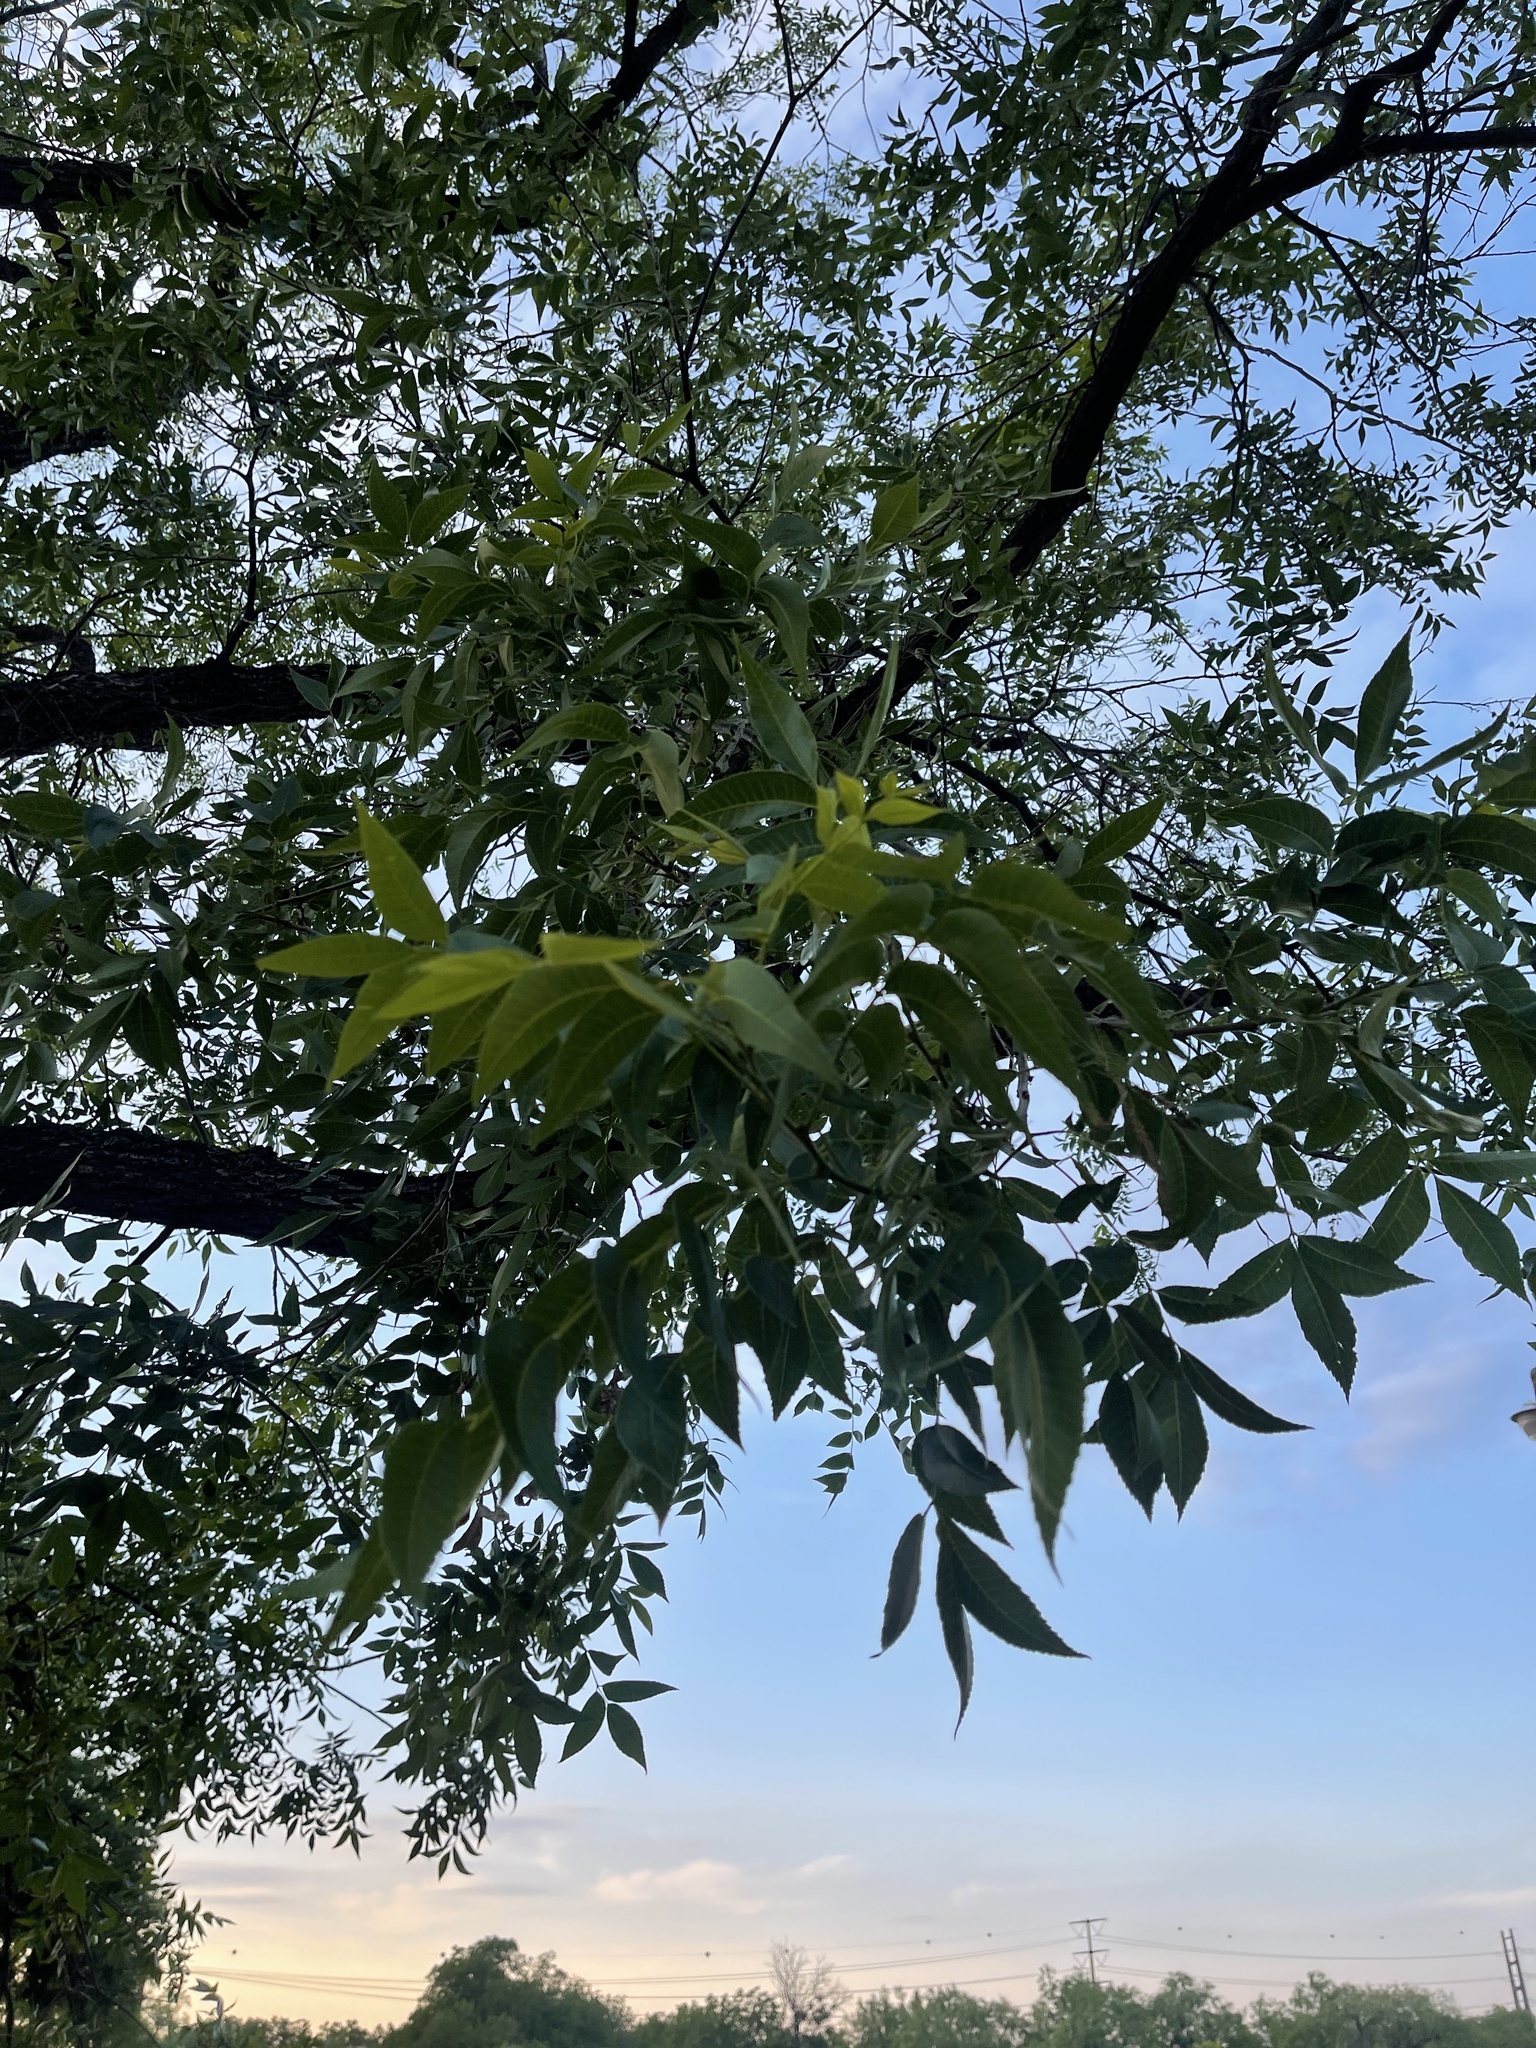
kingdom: Plantae
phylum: Tracheophyta
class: Magnoliopsida
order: Fagales
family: Juglandaceae
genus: Carya
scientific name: Carya illinoinensis
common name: Pecan
